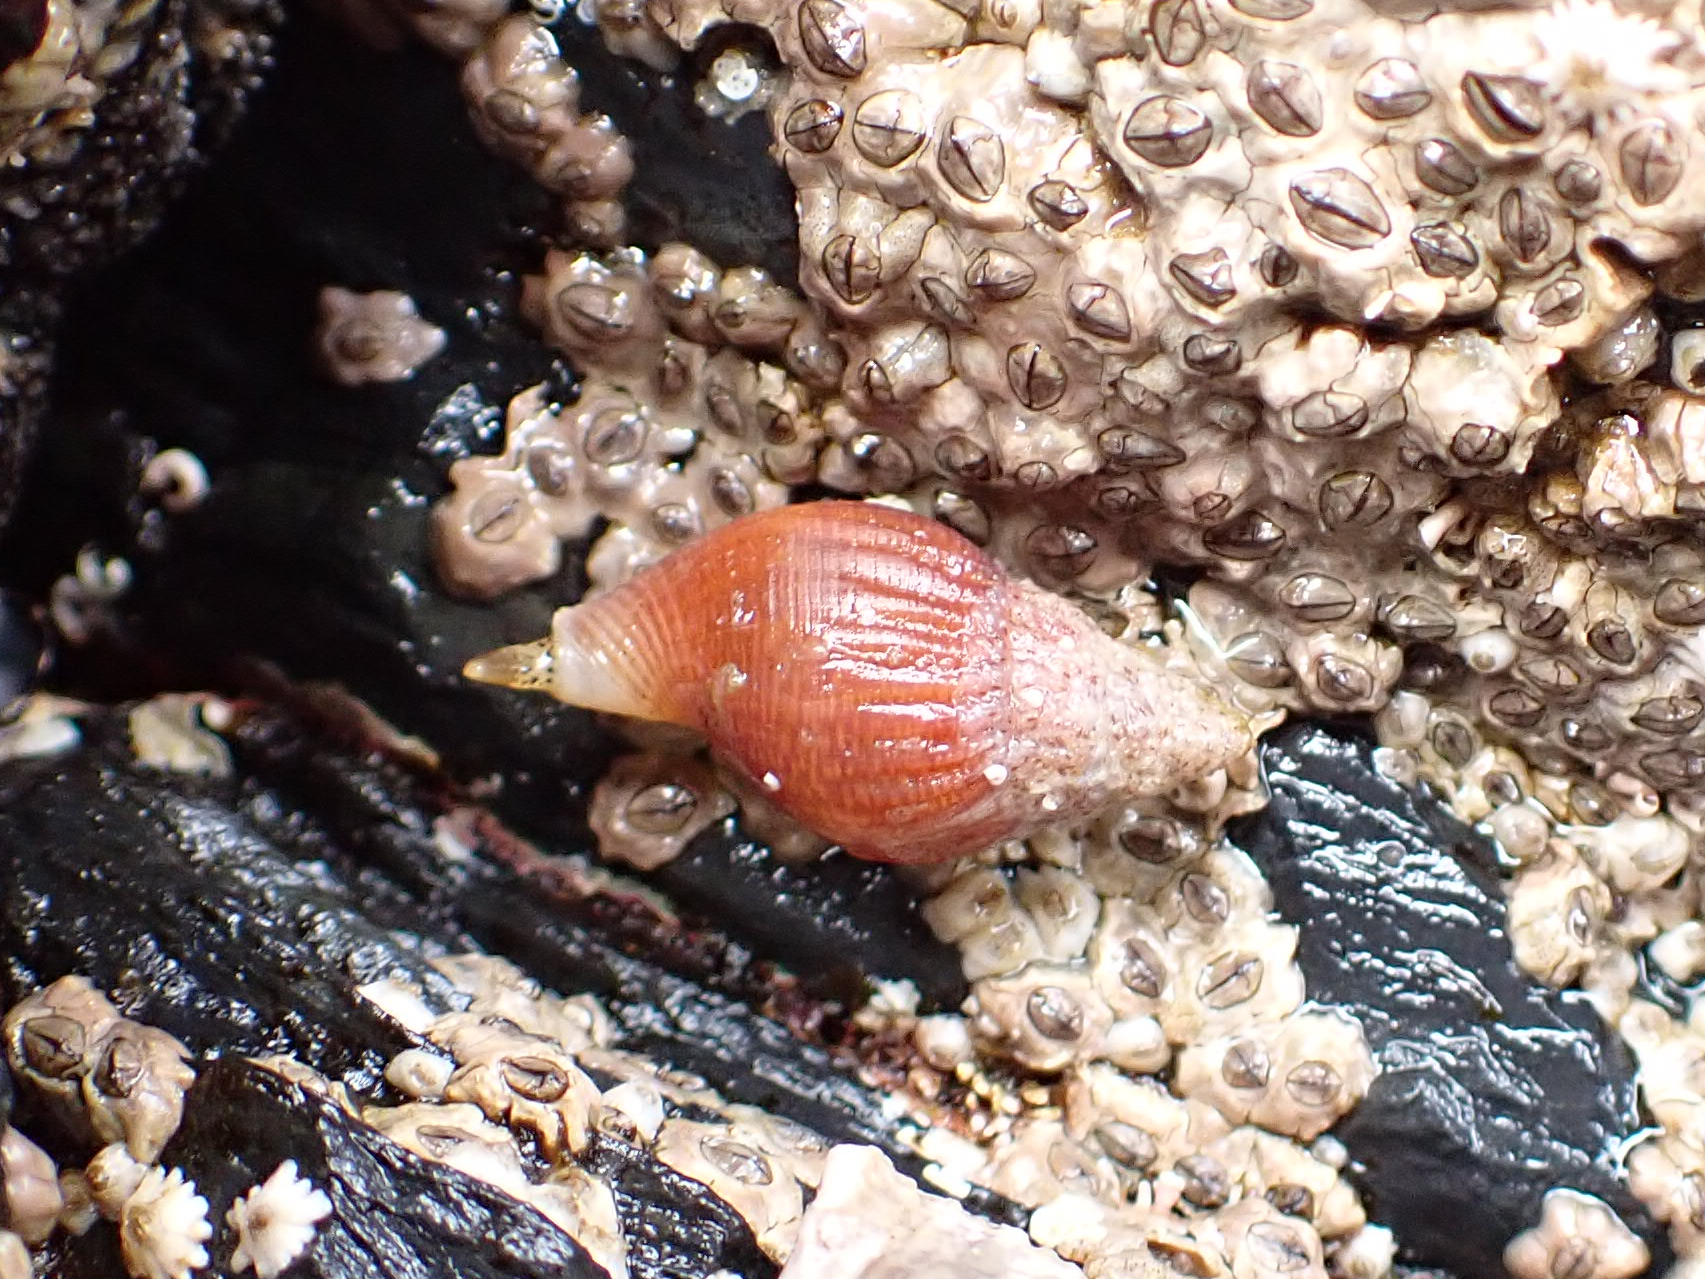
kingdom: Animalia
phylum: Mollusca
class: Gastropoda
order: Neogastropoda
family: Columbellidae
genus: Amphissa
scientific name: Amphissa columbiana
